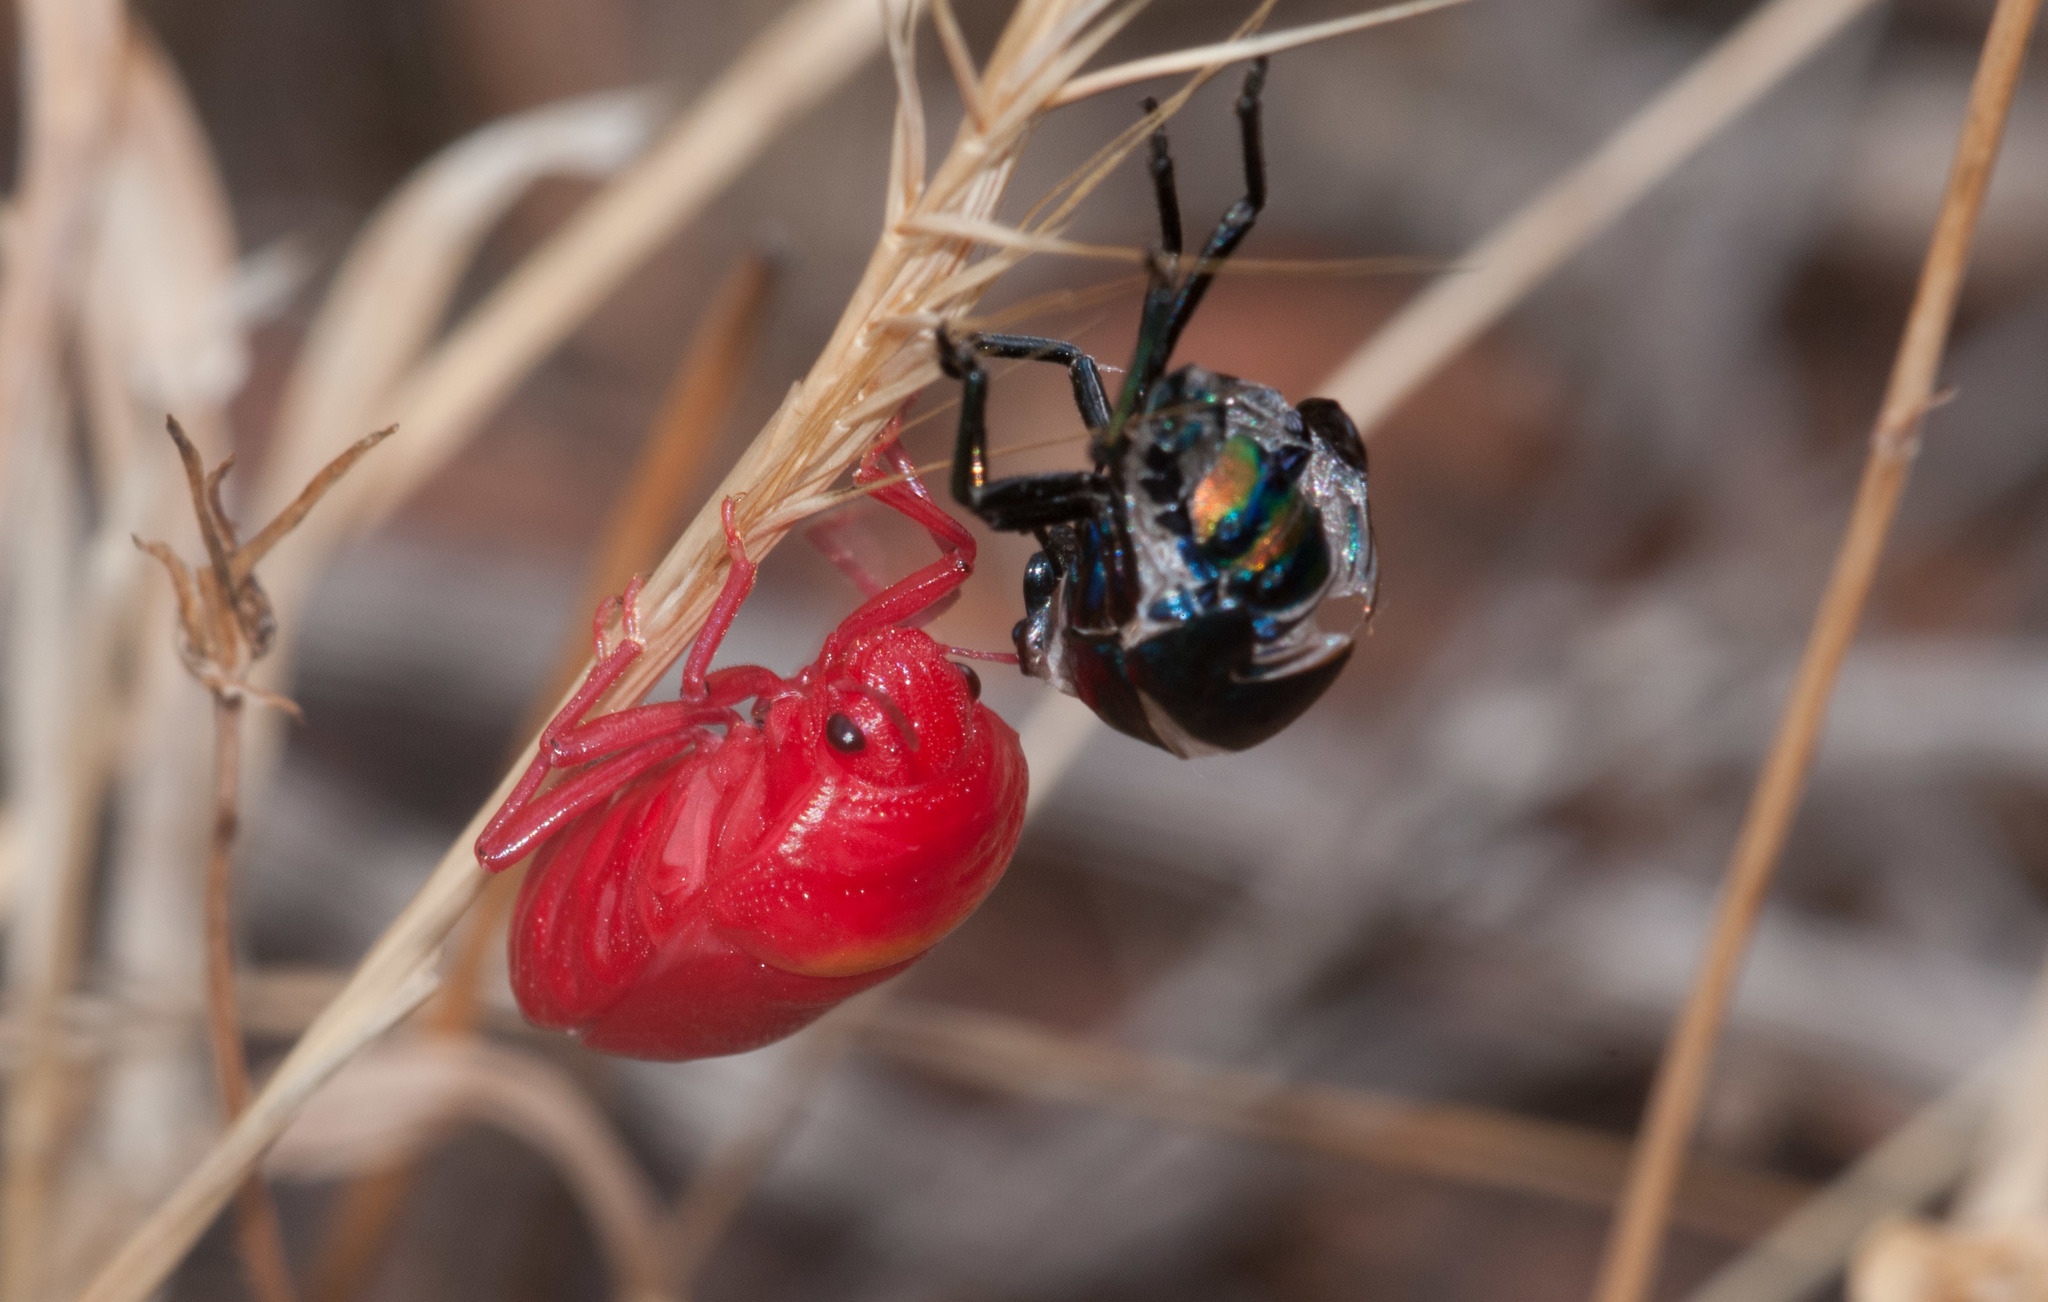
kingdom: Animalia
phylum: Arthropoda
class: Insecta
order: Hemiptera
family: Scutelleridae
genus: Choerocoris
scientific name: Choerocoris paganus
